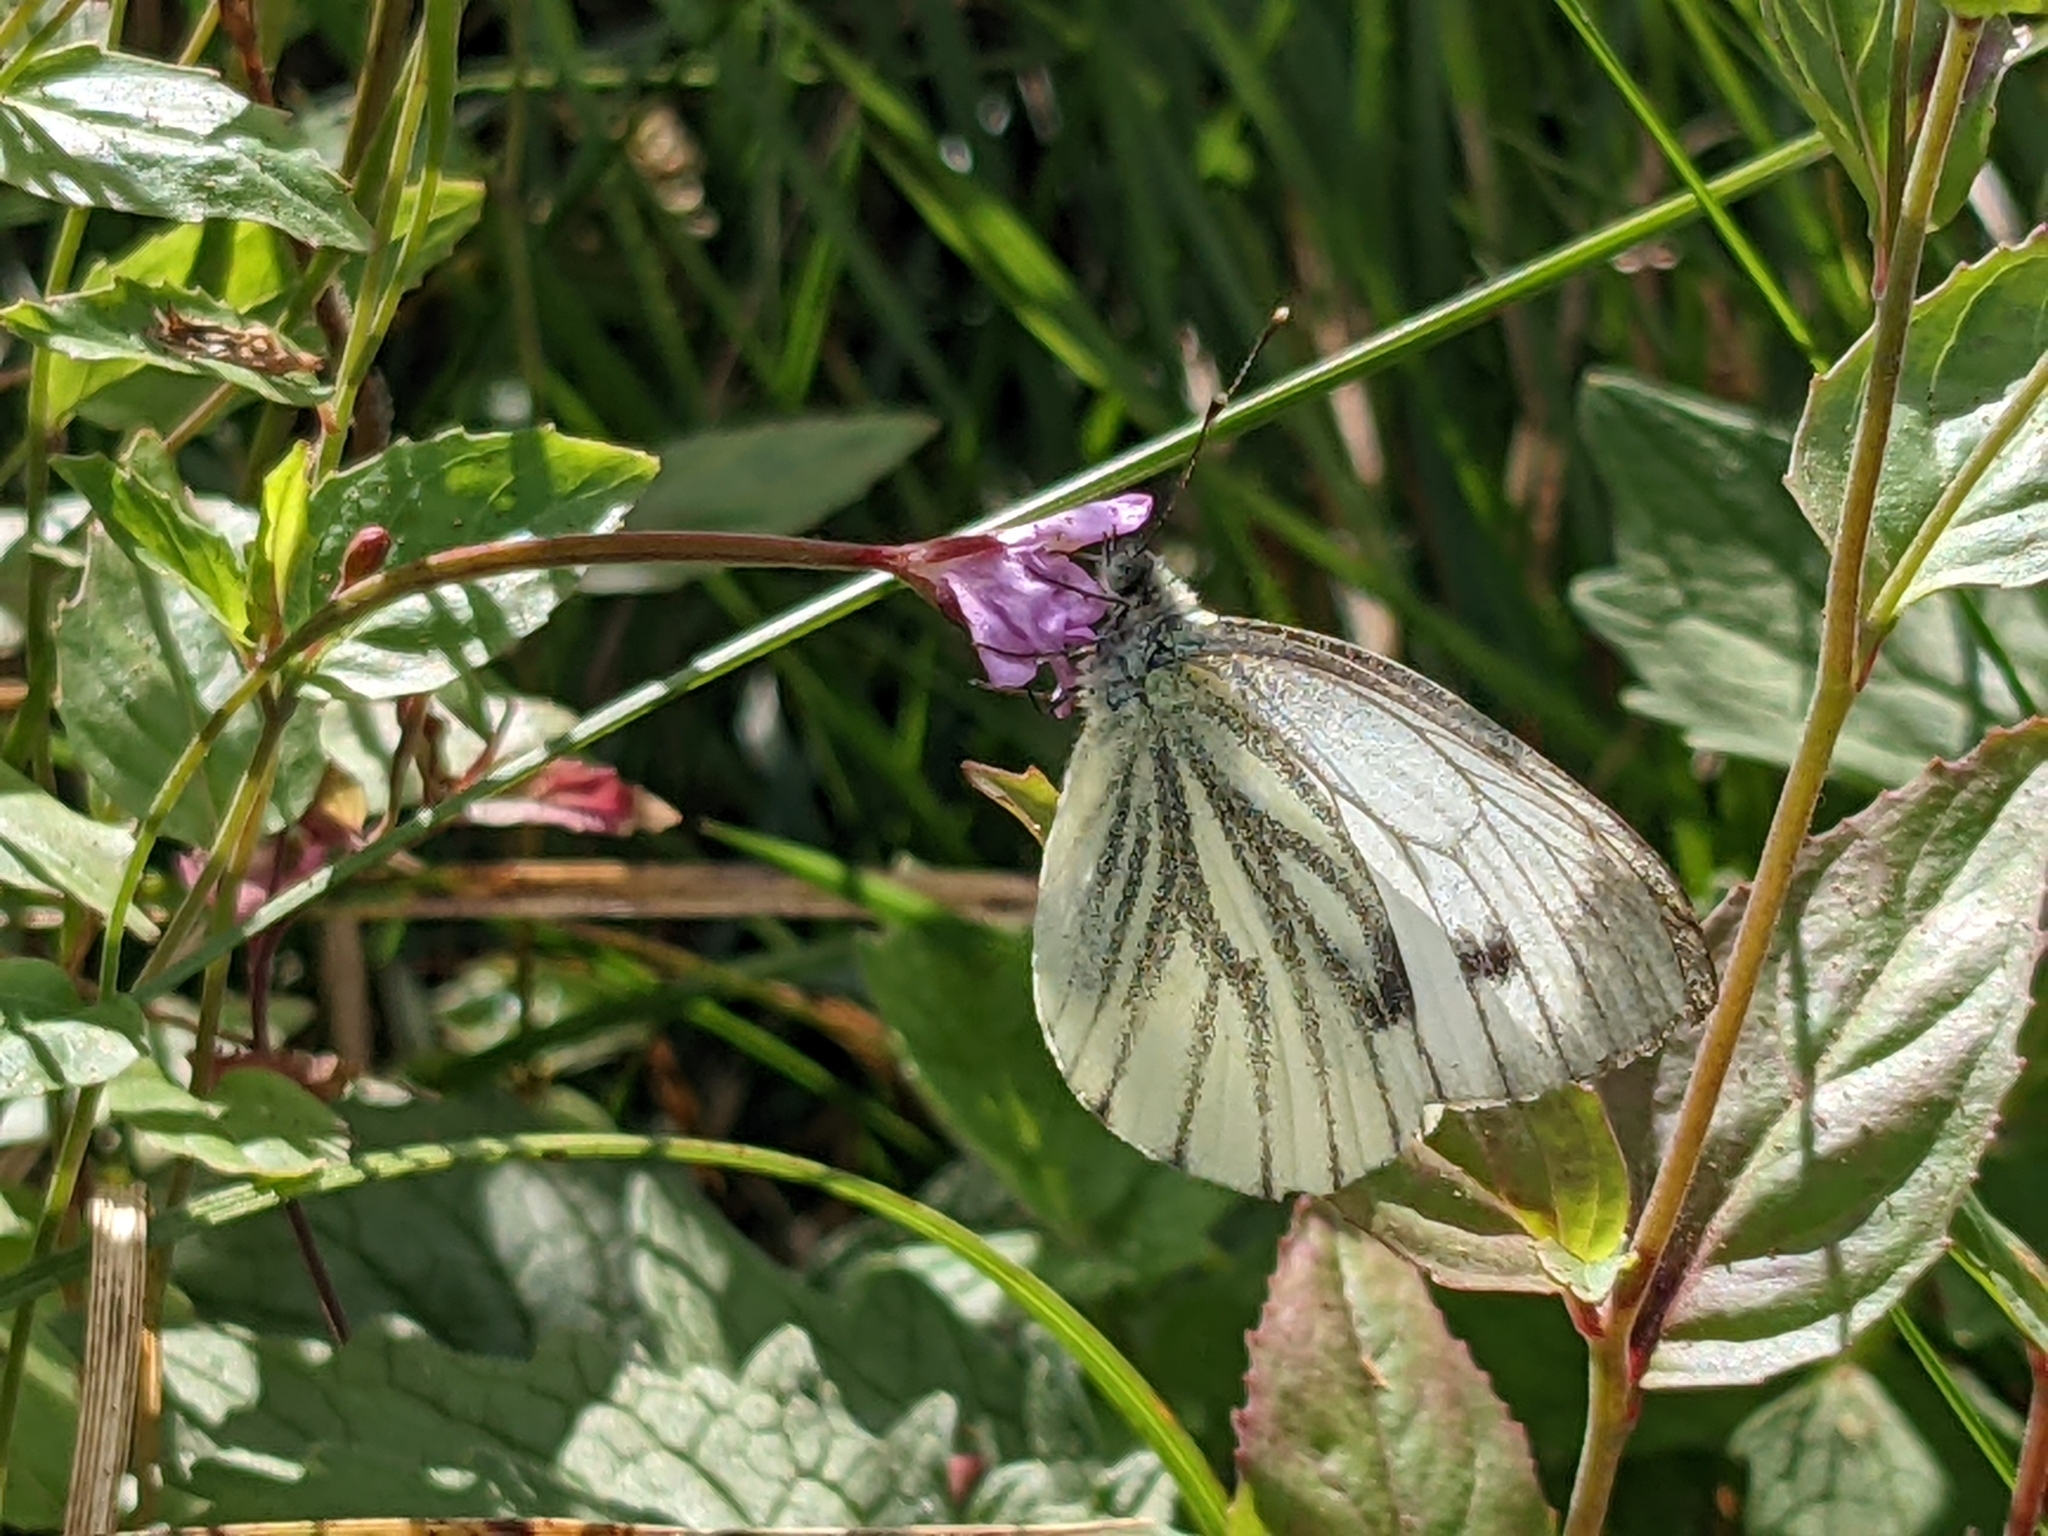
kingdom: Animalia
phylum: Arthropoda
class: Insecta
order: Lepidoptera
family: Pieridae
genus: Pieris
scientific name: Pieris napi
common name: Green-veined white
